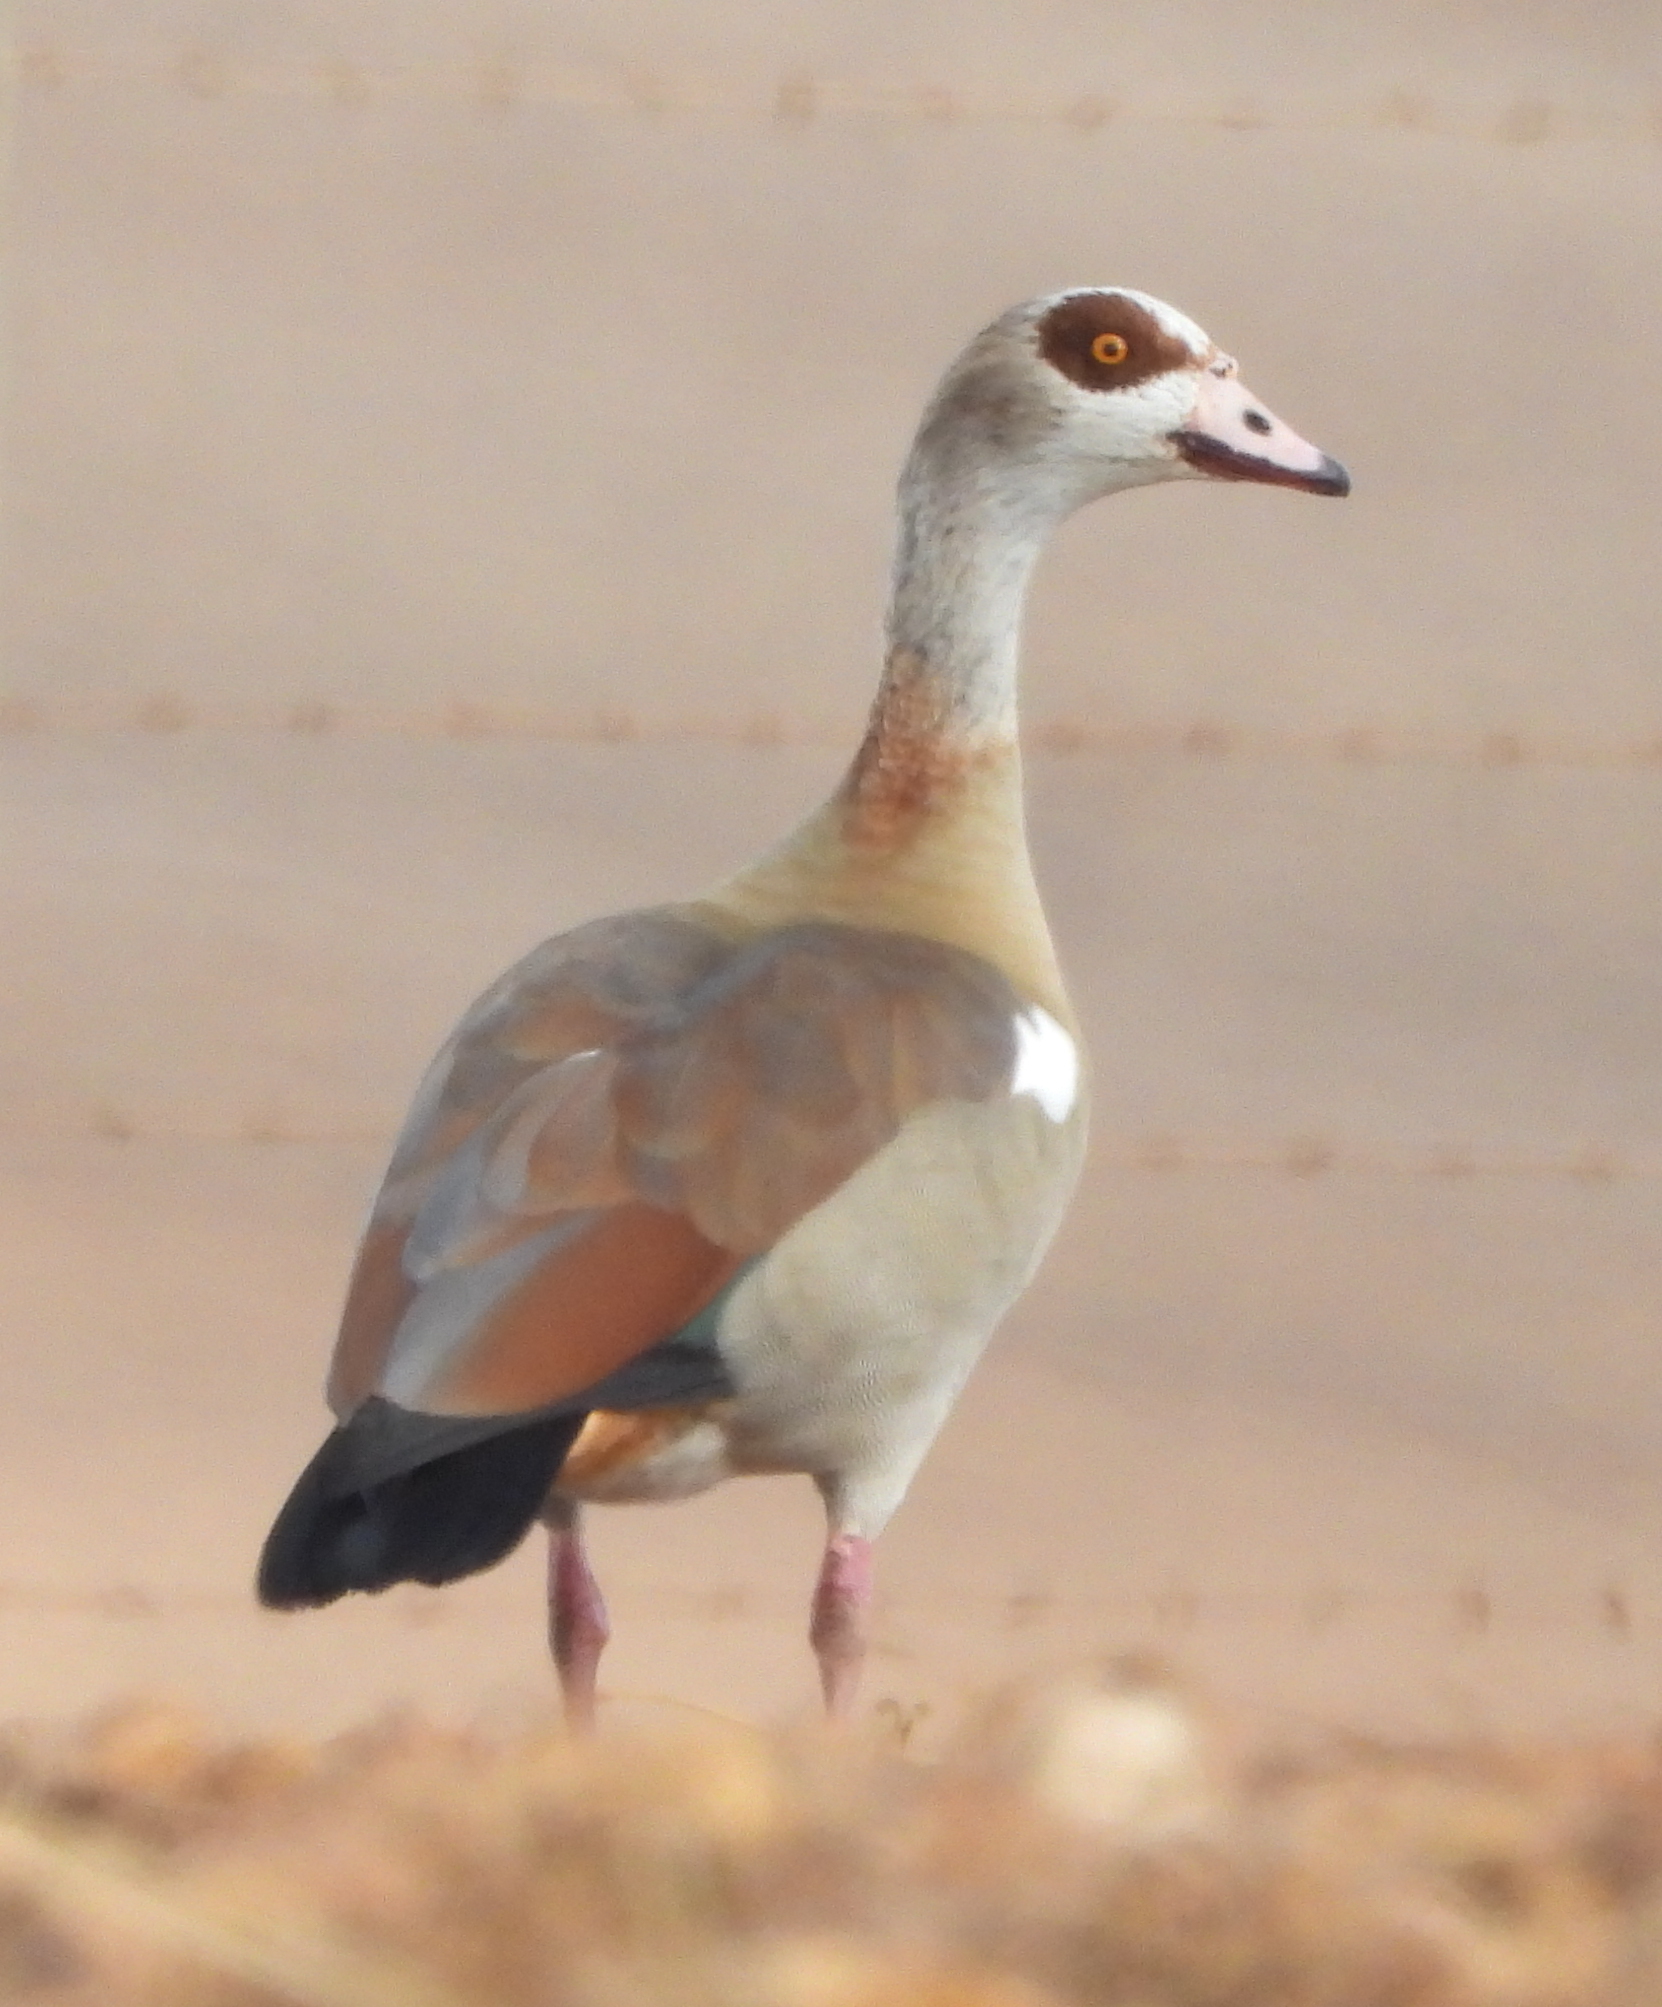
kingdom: Animalia
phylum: Chordata
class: Aves
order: Anseriformes
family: Anatidae
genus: Alopochen
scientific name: Alopochen aegyptiaca
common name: Egyptian goose
